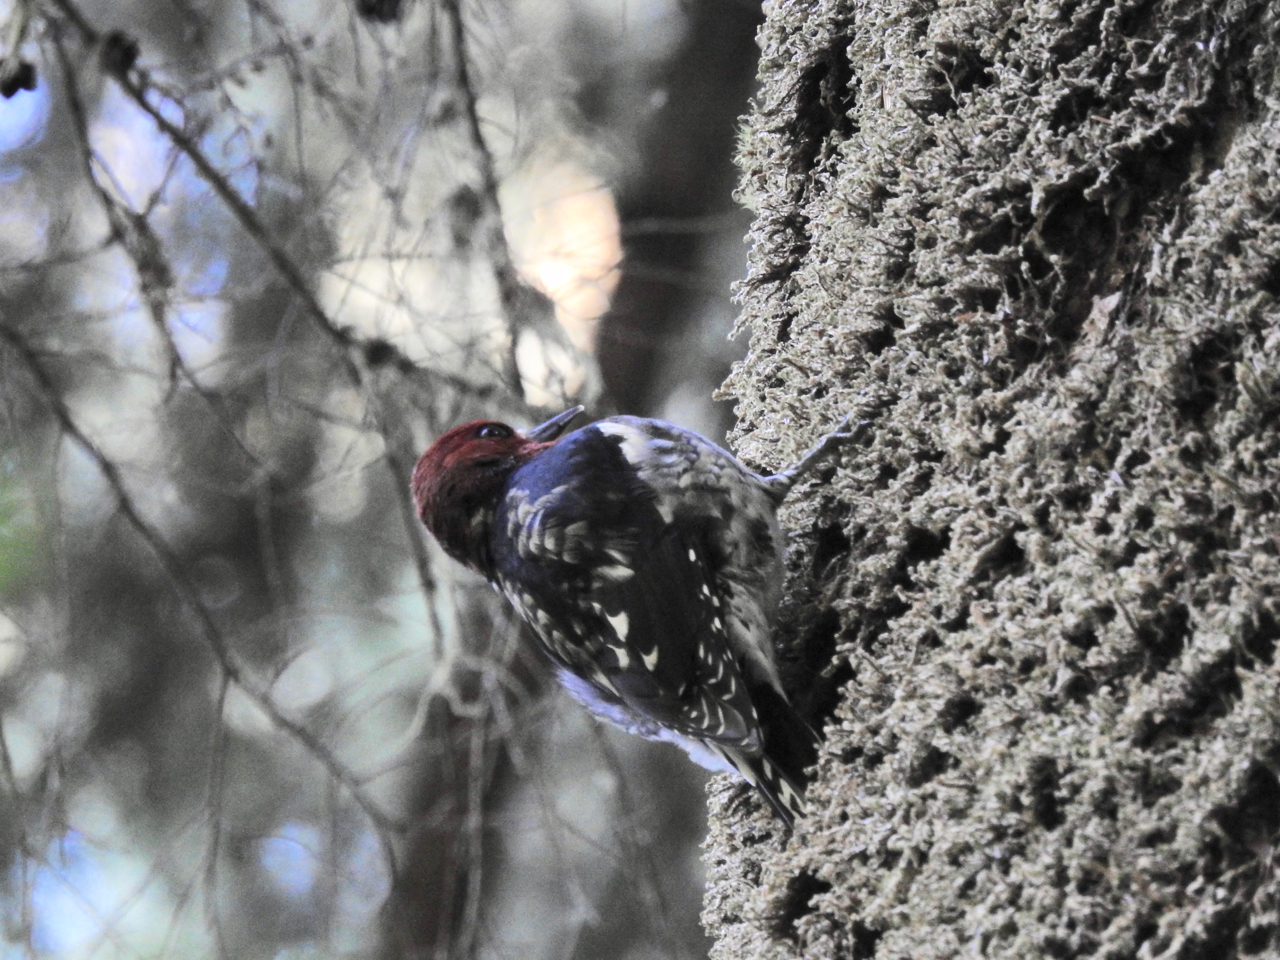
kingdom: Animalia
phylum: Chordata
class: Aves
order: Piciformes
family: Picidae
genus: Sphyrapicus
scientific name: Sphyrapicus ruber
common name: Red-breasted sapsucker
